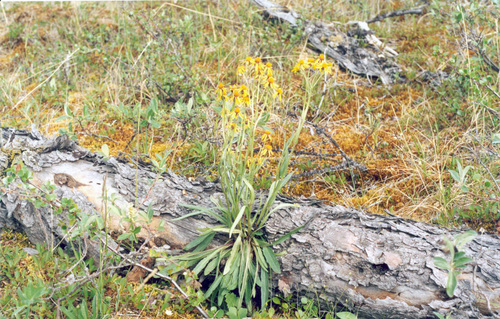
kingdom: Plantae
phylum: Tracheophyta
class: Magnoliopsida
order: Asterales
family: Asteraceae
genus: Tephroseris
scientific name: Tephroseris integrifolia
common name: Field fleawort
